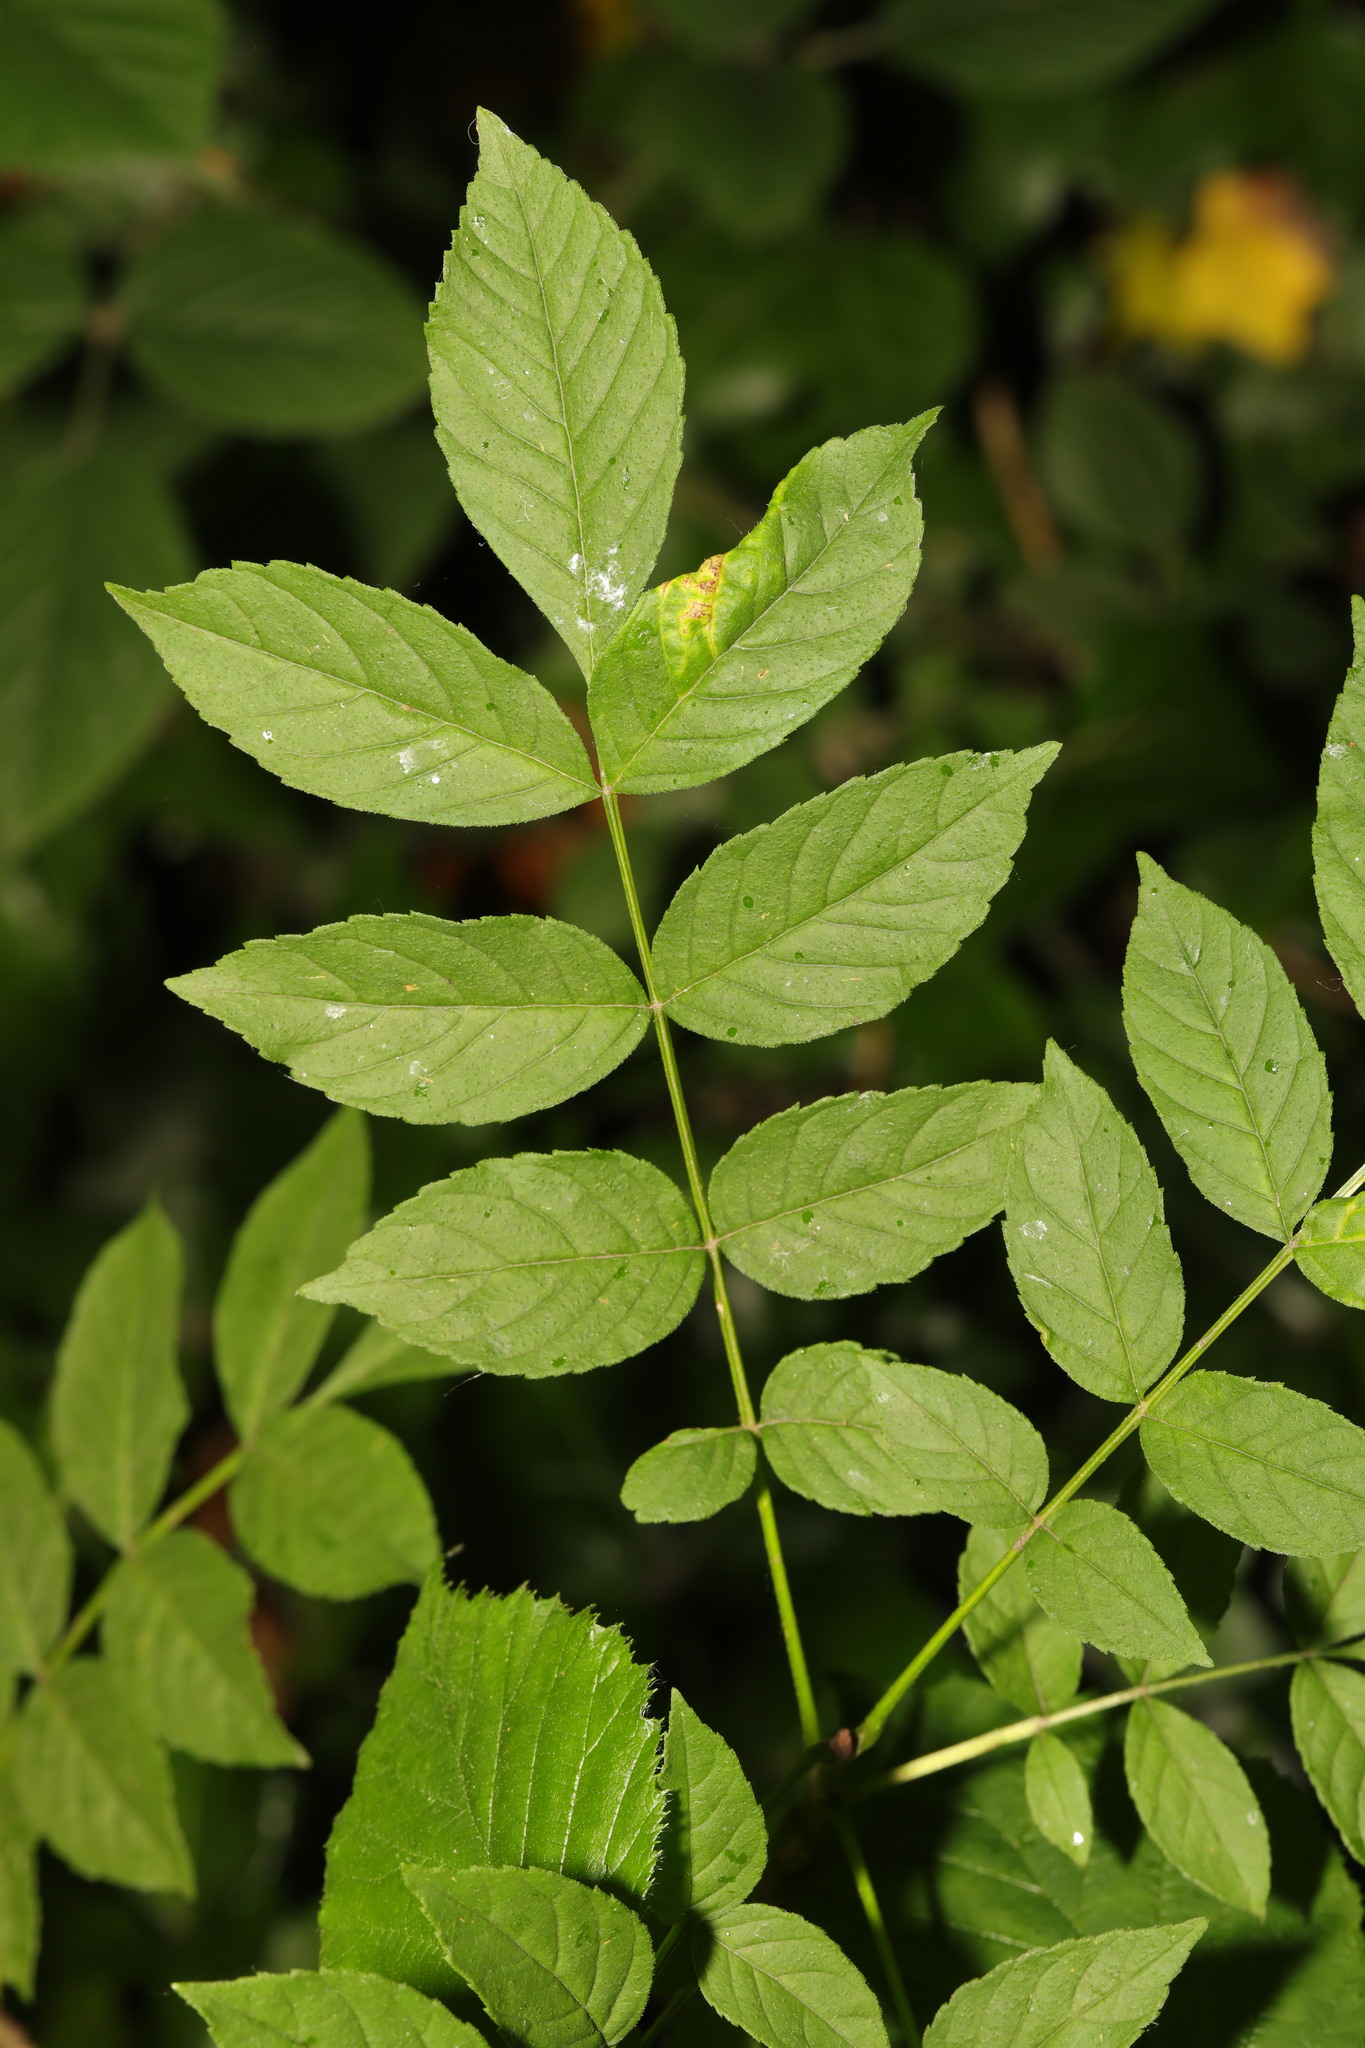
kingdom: Plantae
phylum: Tracheophyta
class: Magnoliopsida
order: Lamiales
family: Oleaceae
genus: Fraxinus
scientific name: Fraxinus excelsior
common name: European ash
